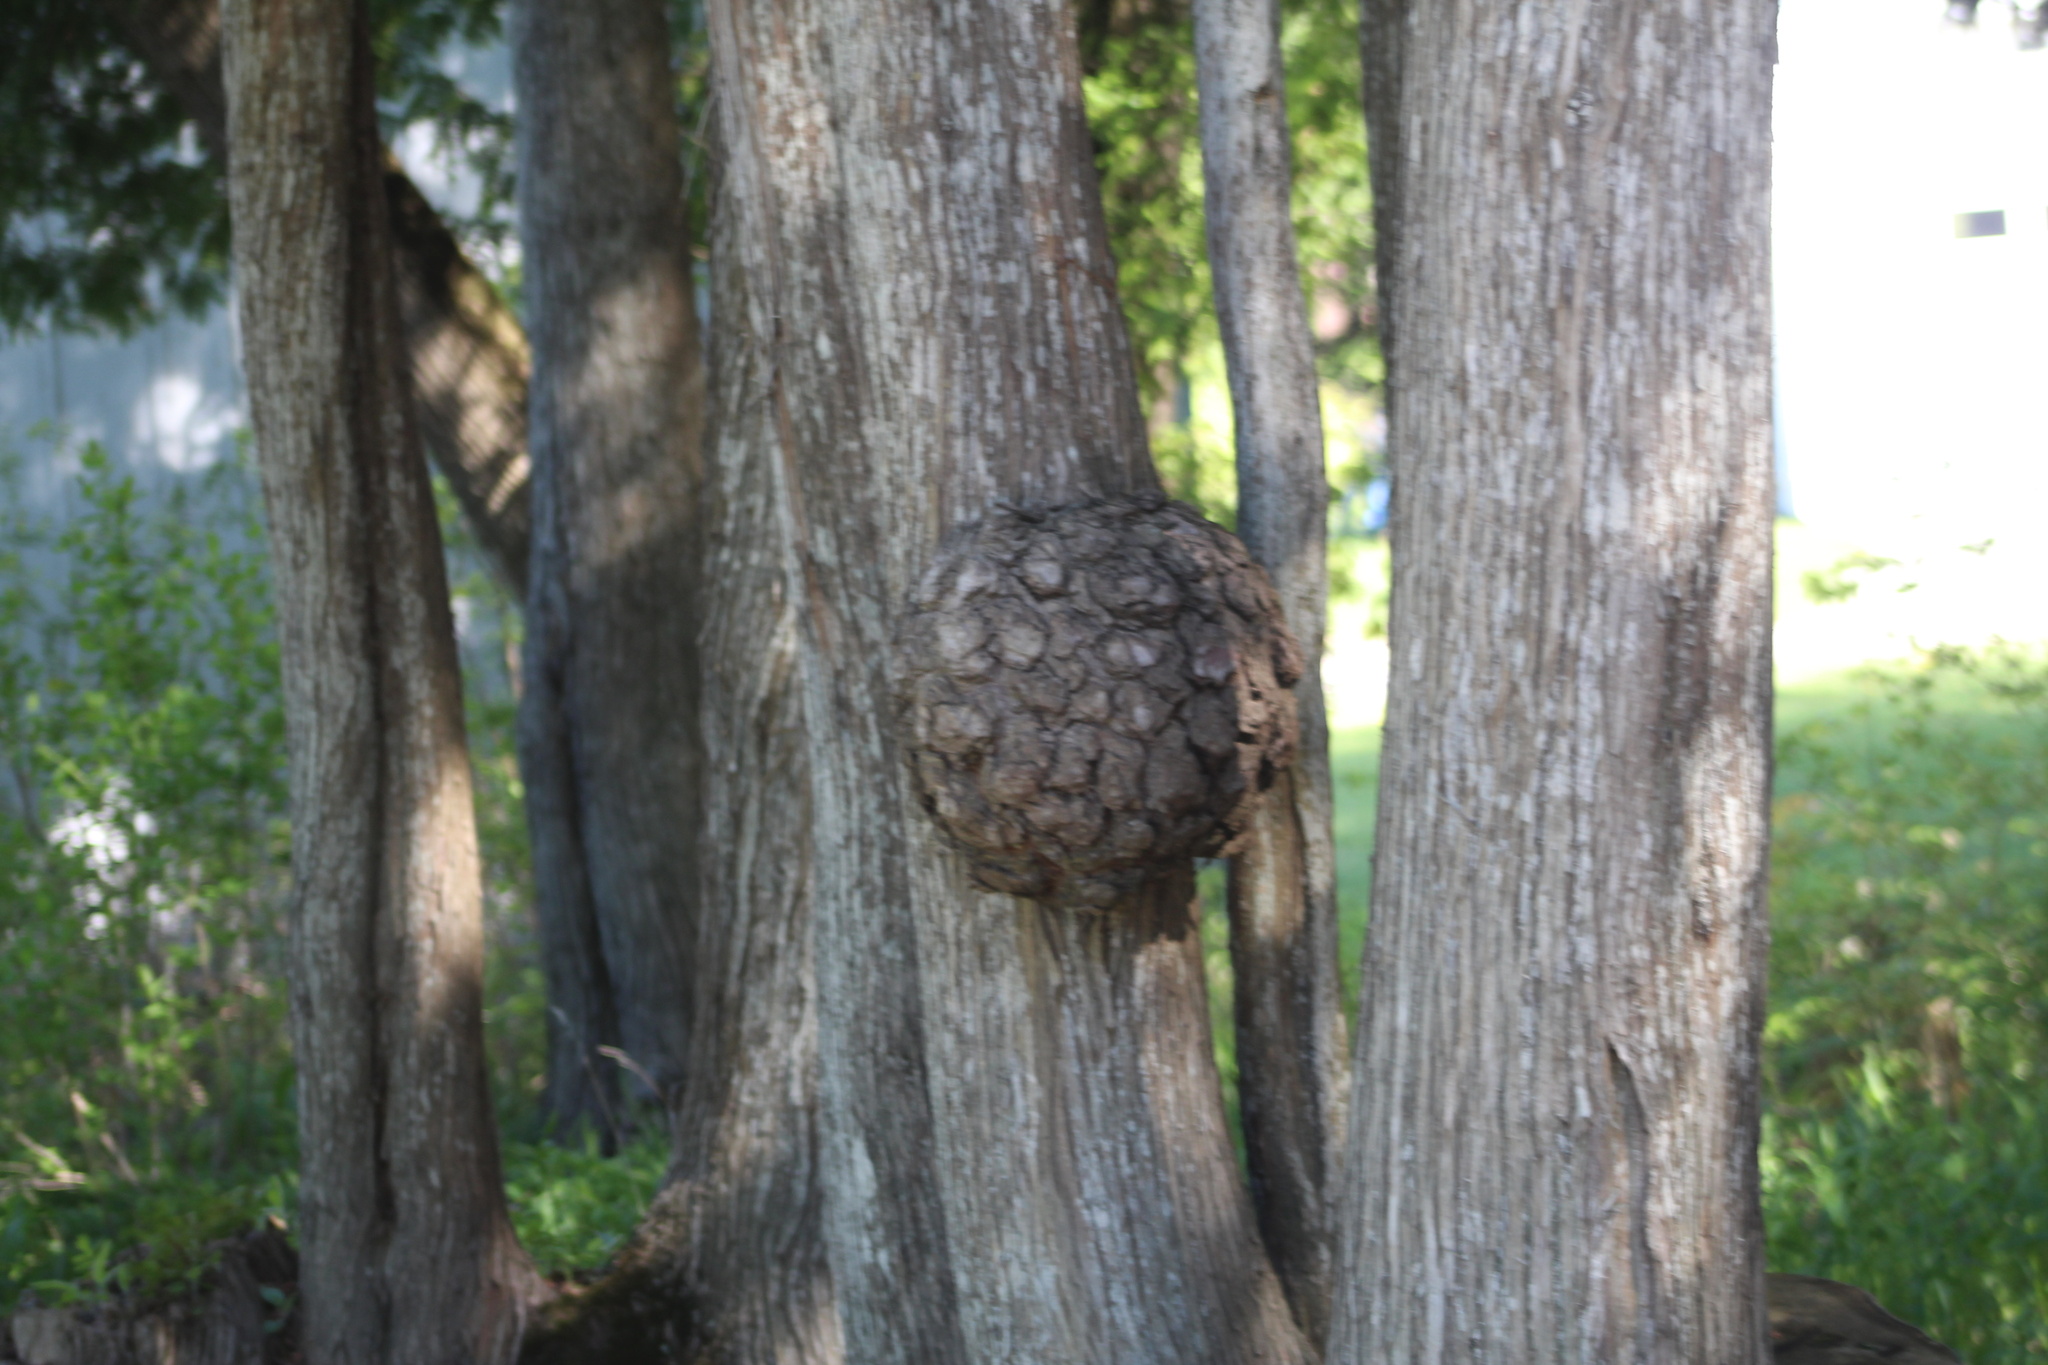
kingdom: Bacteria
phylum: Proteobacteria
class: Alphaproteobacteria
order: Rhizobiales
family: Rhizobiaceae
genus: Rhizobium
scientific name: Rhizobium Agrobacterium radiobacter
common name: Bacterial crown gall
